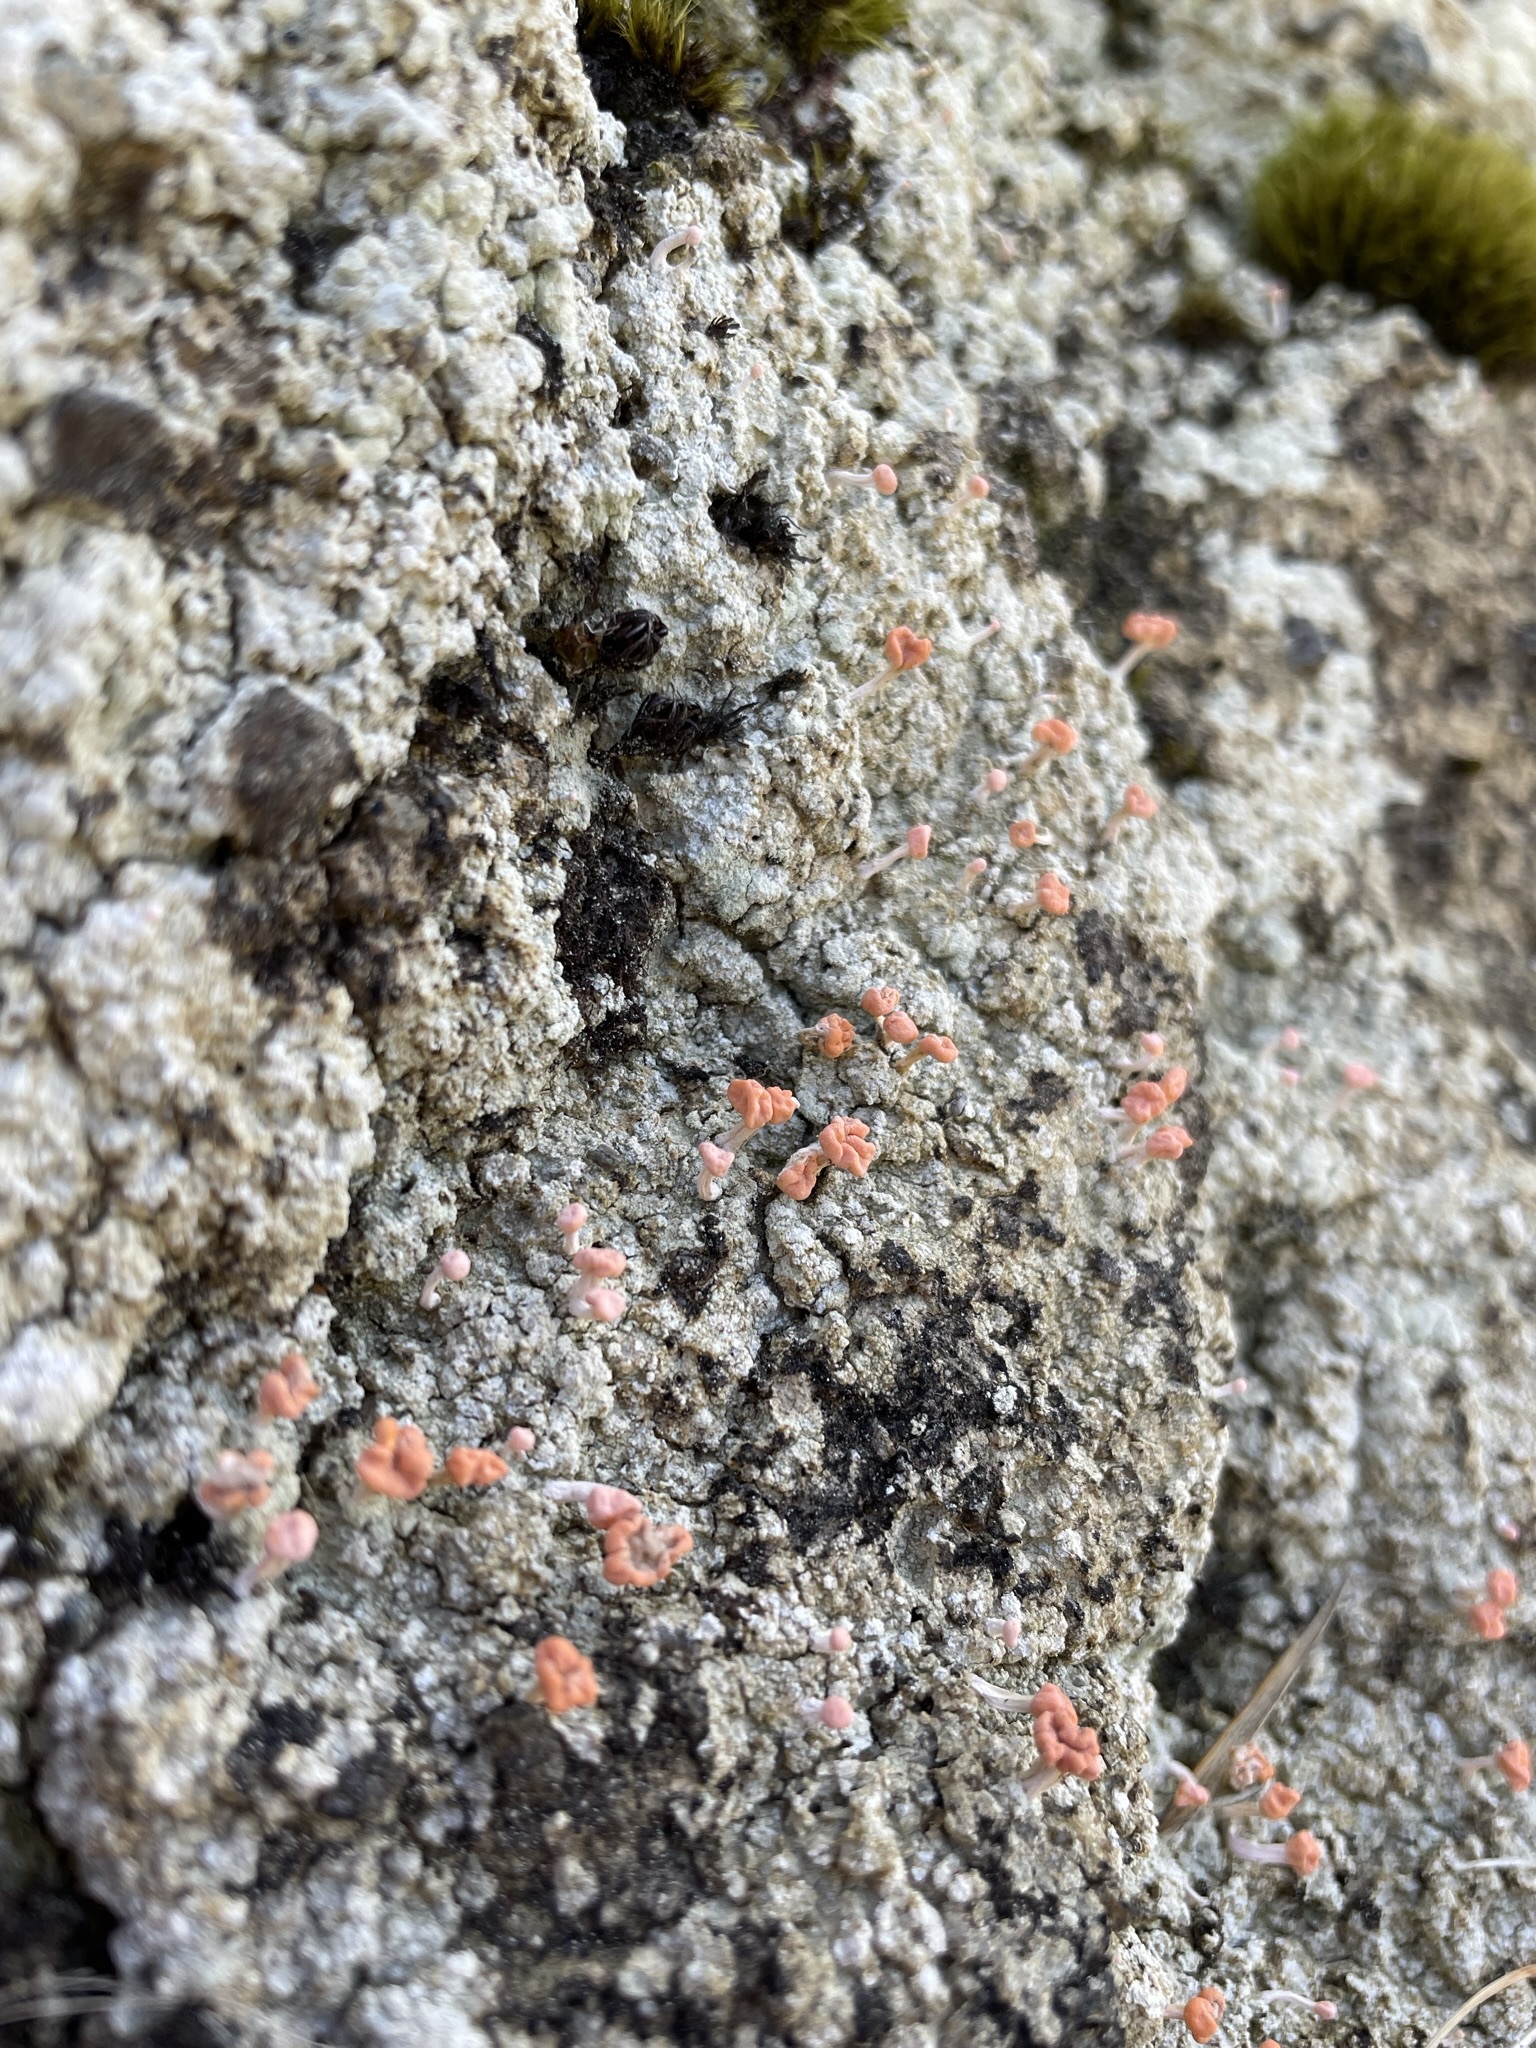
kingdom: Fungi
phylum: Ascomycota
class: Lecanoromycetes
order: Pertusariales
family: Icmadophilaceae
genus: Dibaeis
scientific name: Dibaeis arcuata
